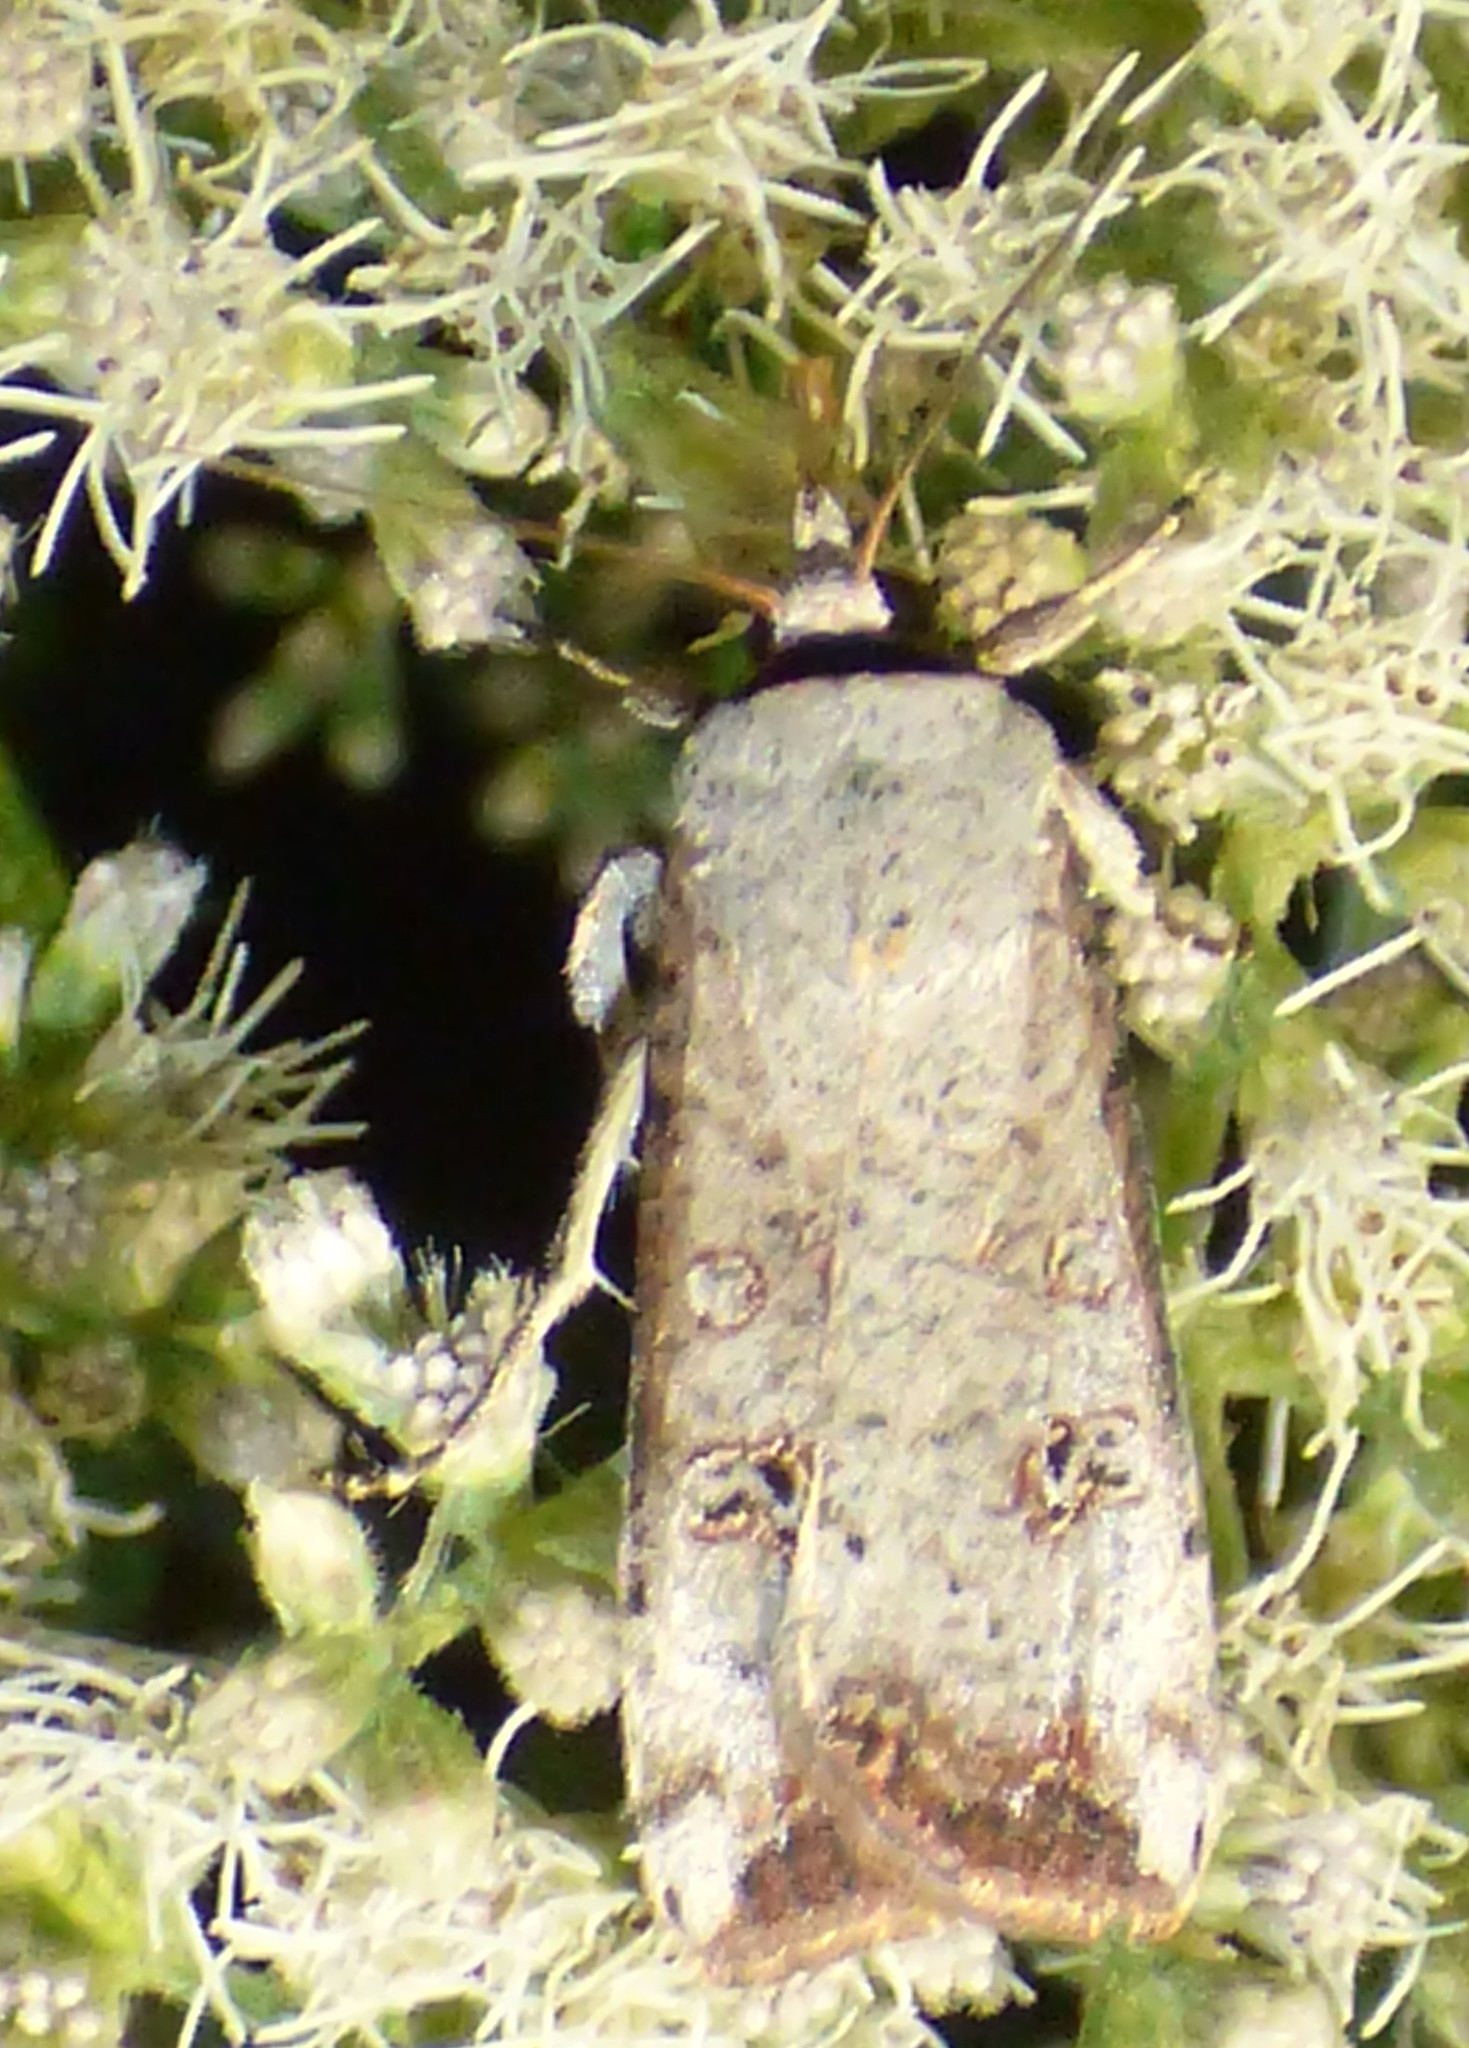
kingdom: Animalia
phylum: Arthropoda
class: Insecta
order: Lepidoptera
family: Noctuidae
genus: Anicla
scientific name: Anicla infecta
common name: Green cutworm
